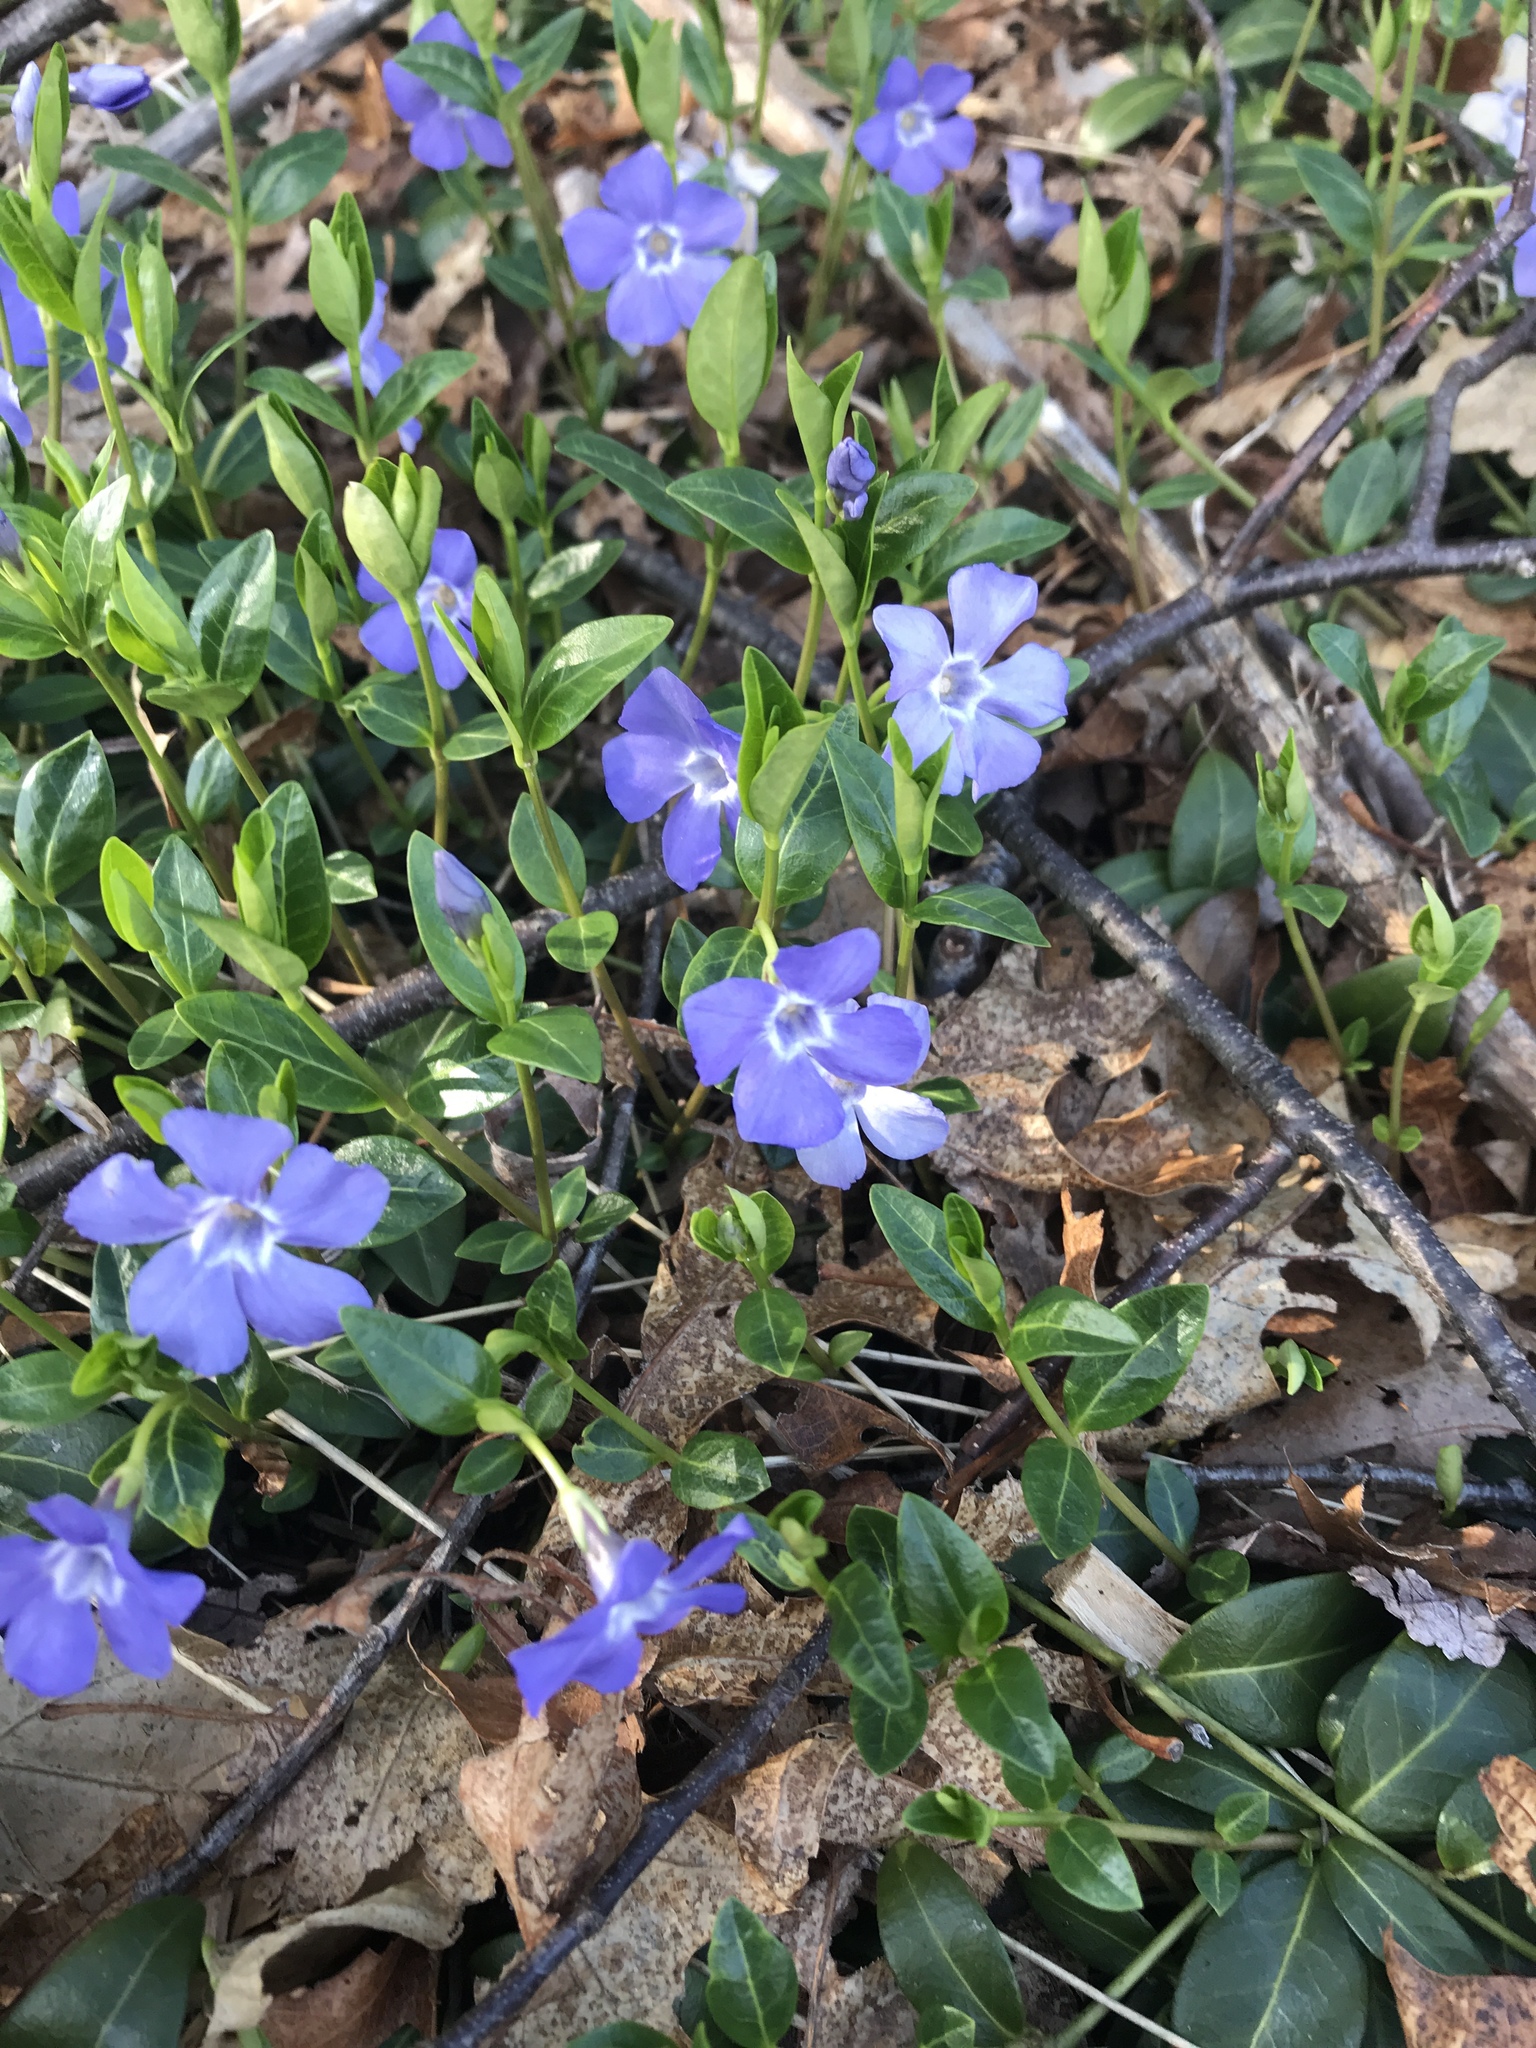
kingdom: Plantae
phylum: Tracheophyta
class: Magnoliopsida
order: Gentianales
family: Apocynaceae
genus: Vinca
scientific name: Vinca minor
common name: Lesser periwinkle
